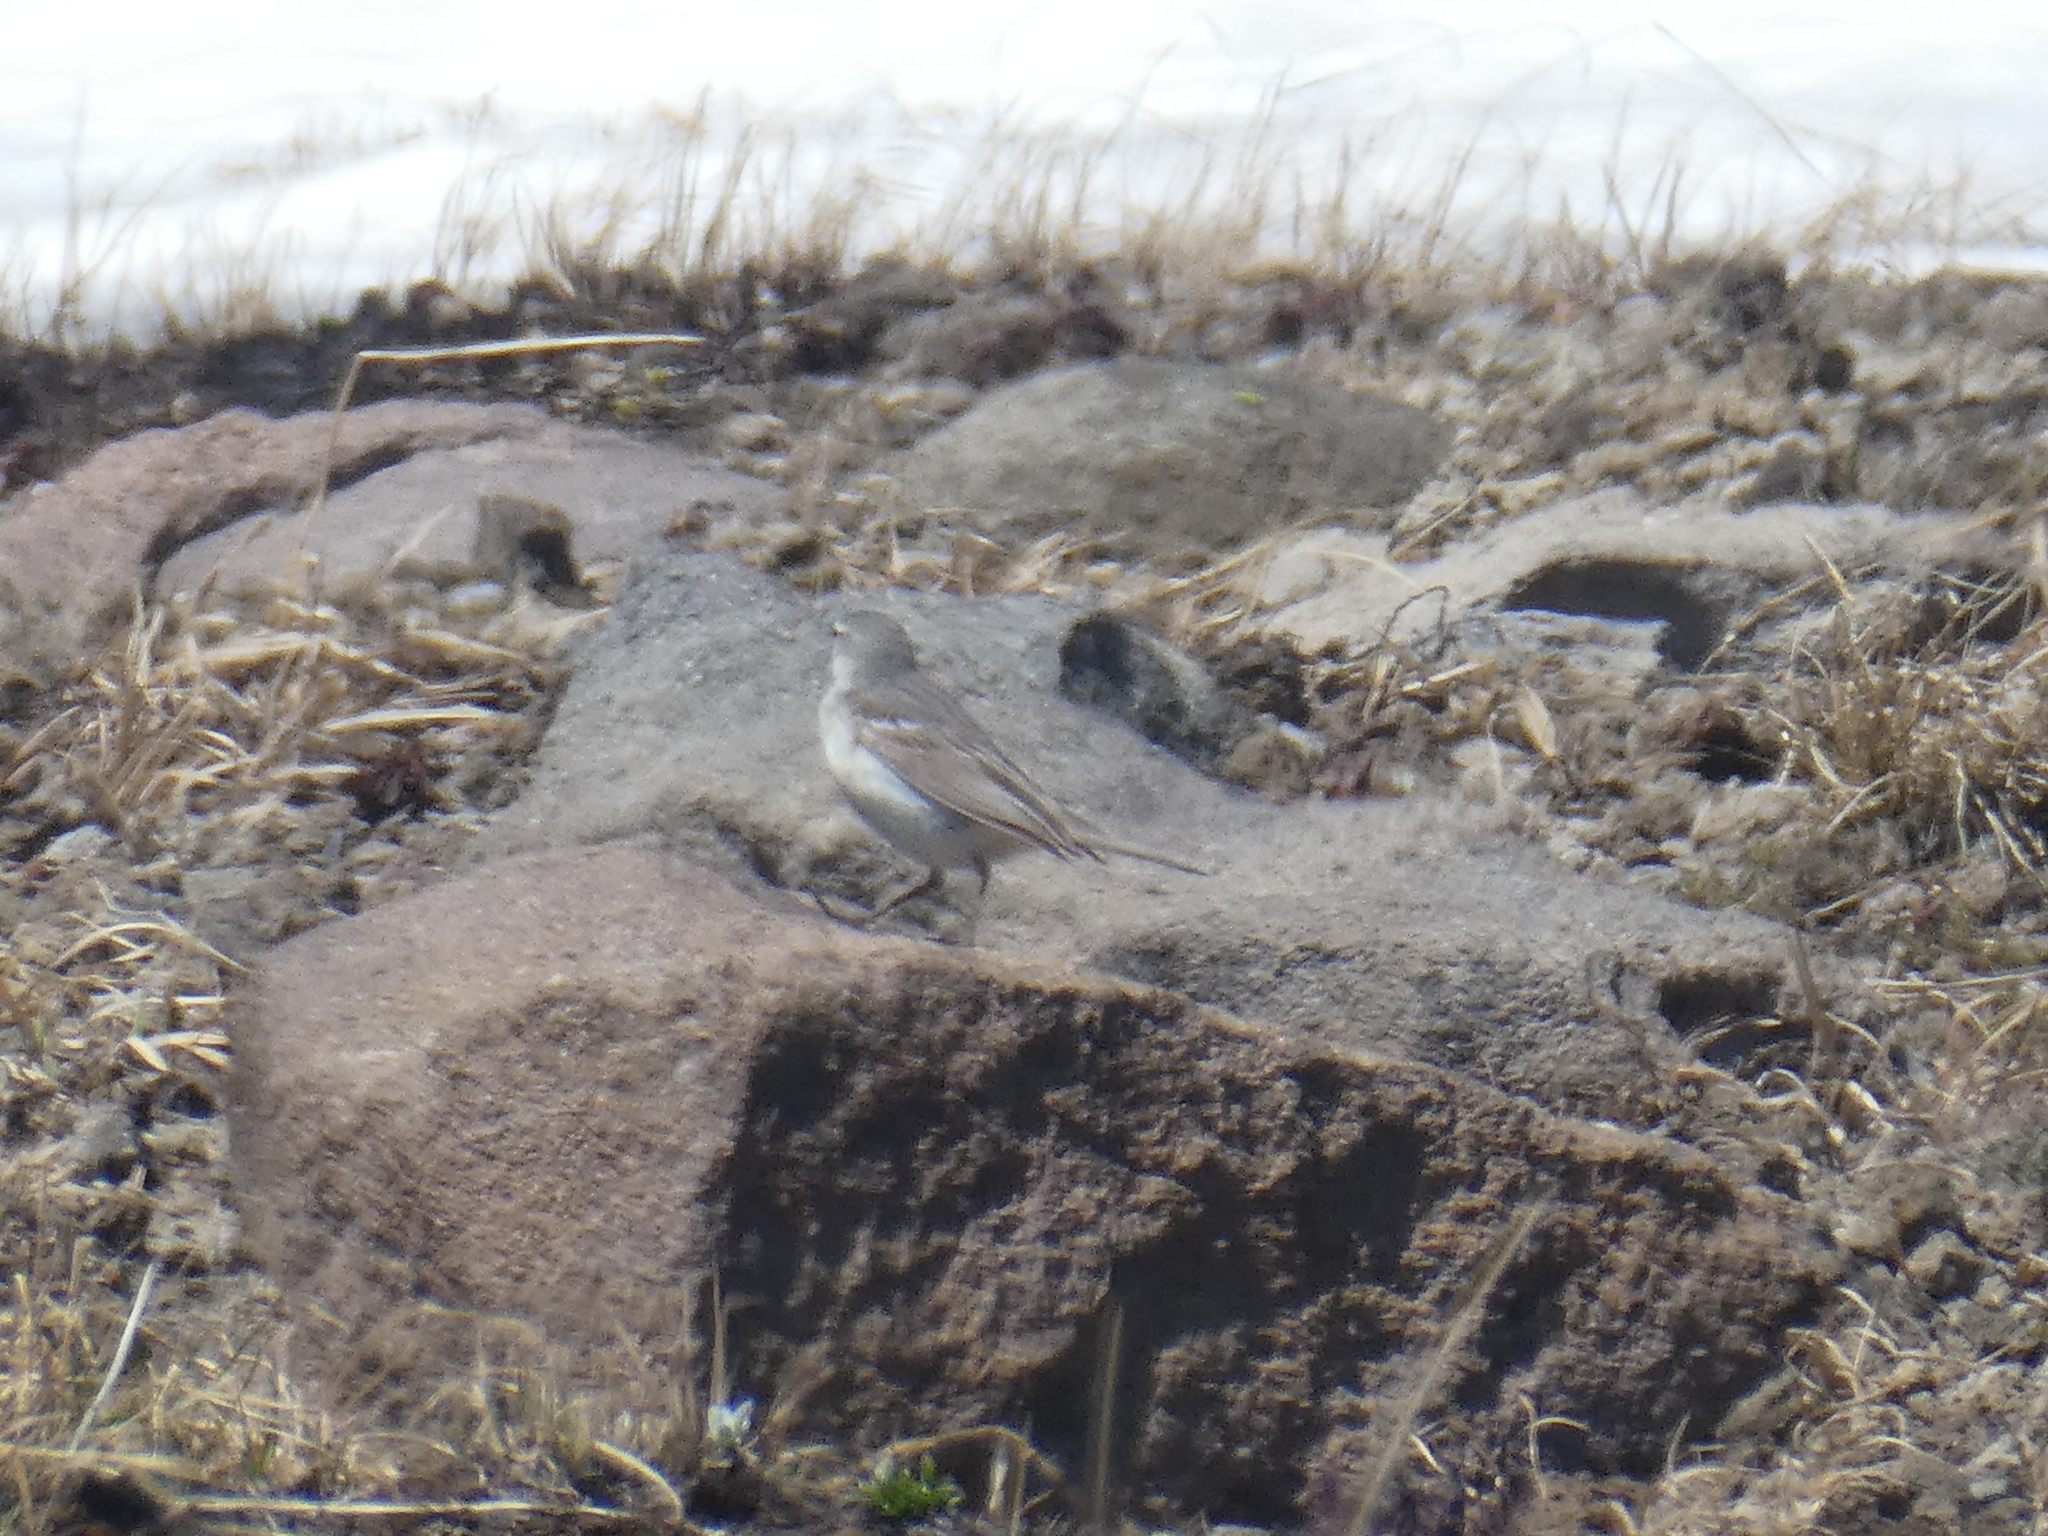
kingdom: Animalia
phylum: Chordata
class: Aves
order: Passeriformes
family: Motacillidae
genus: Anthus
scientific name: Anthus rubescens
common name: Buff-bellied pipit
